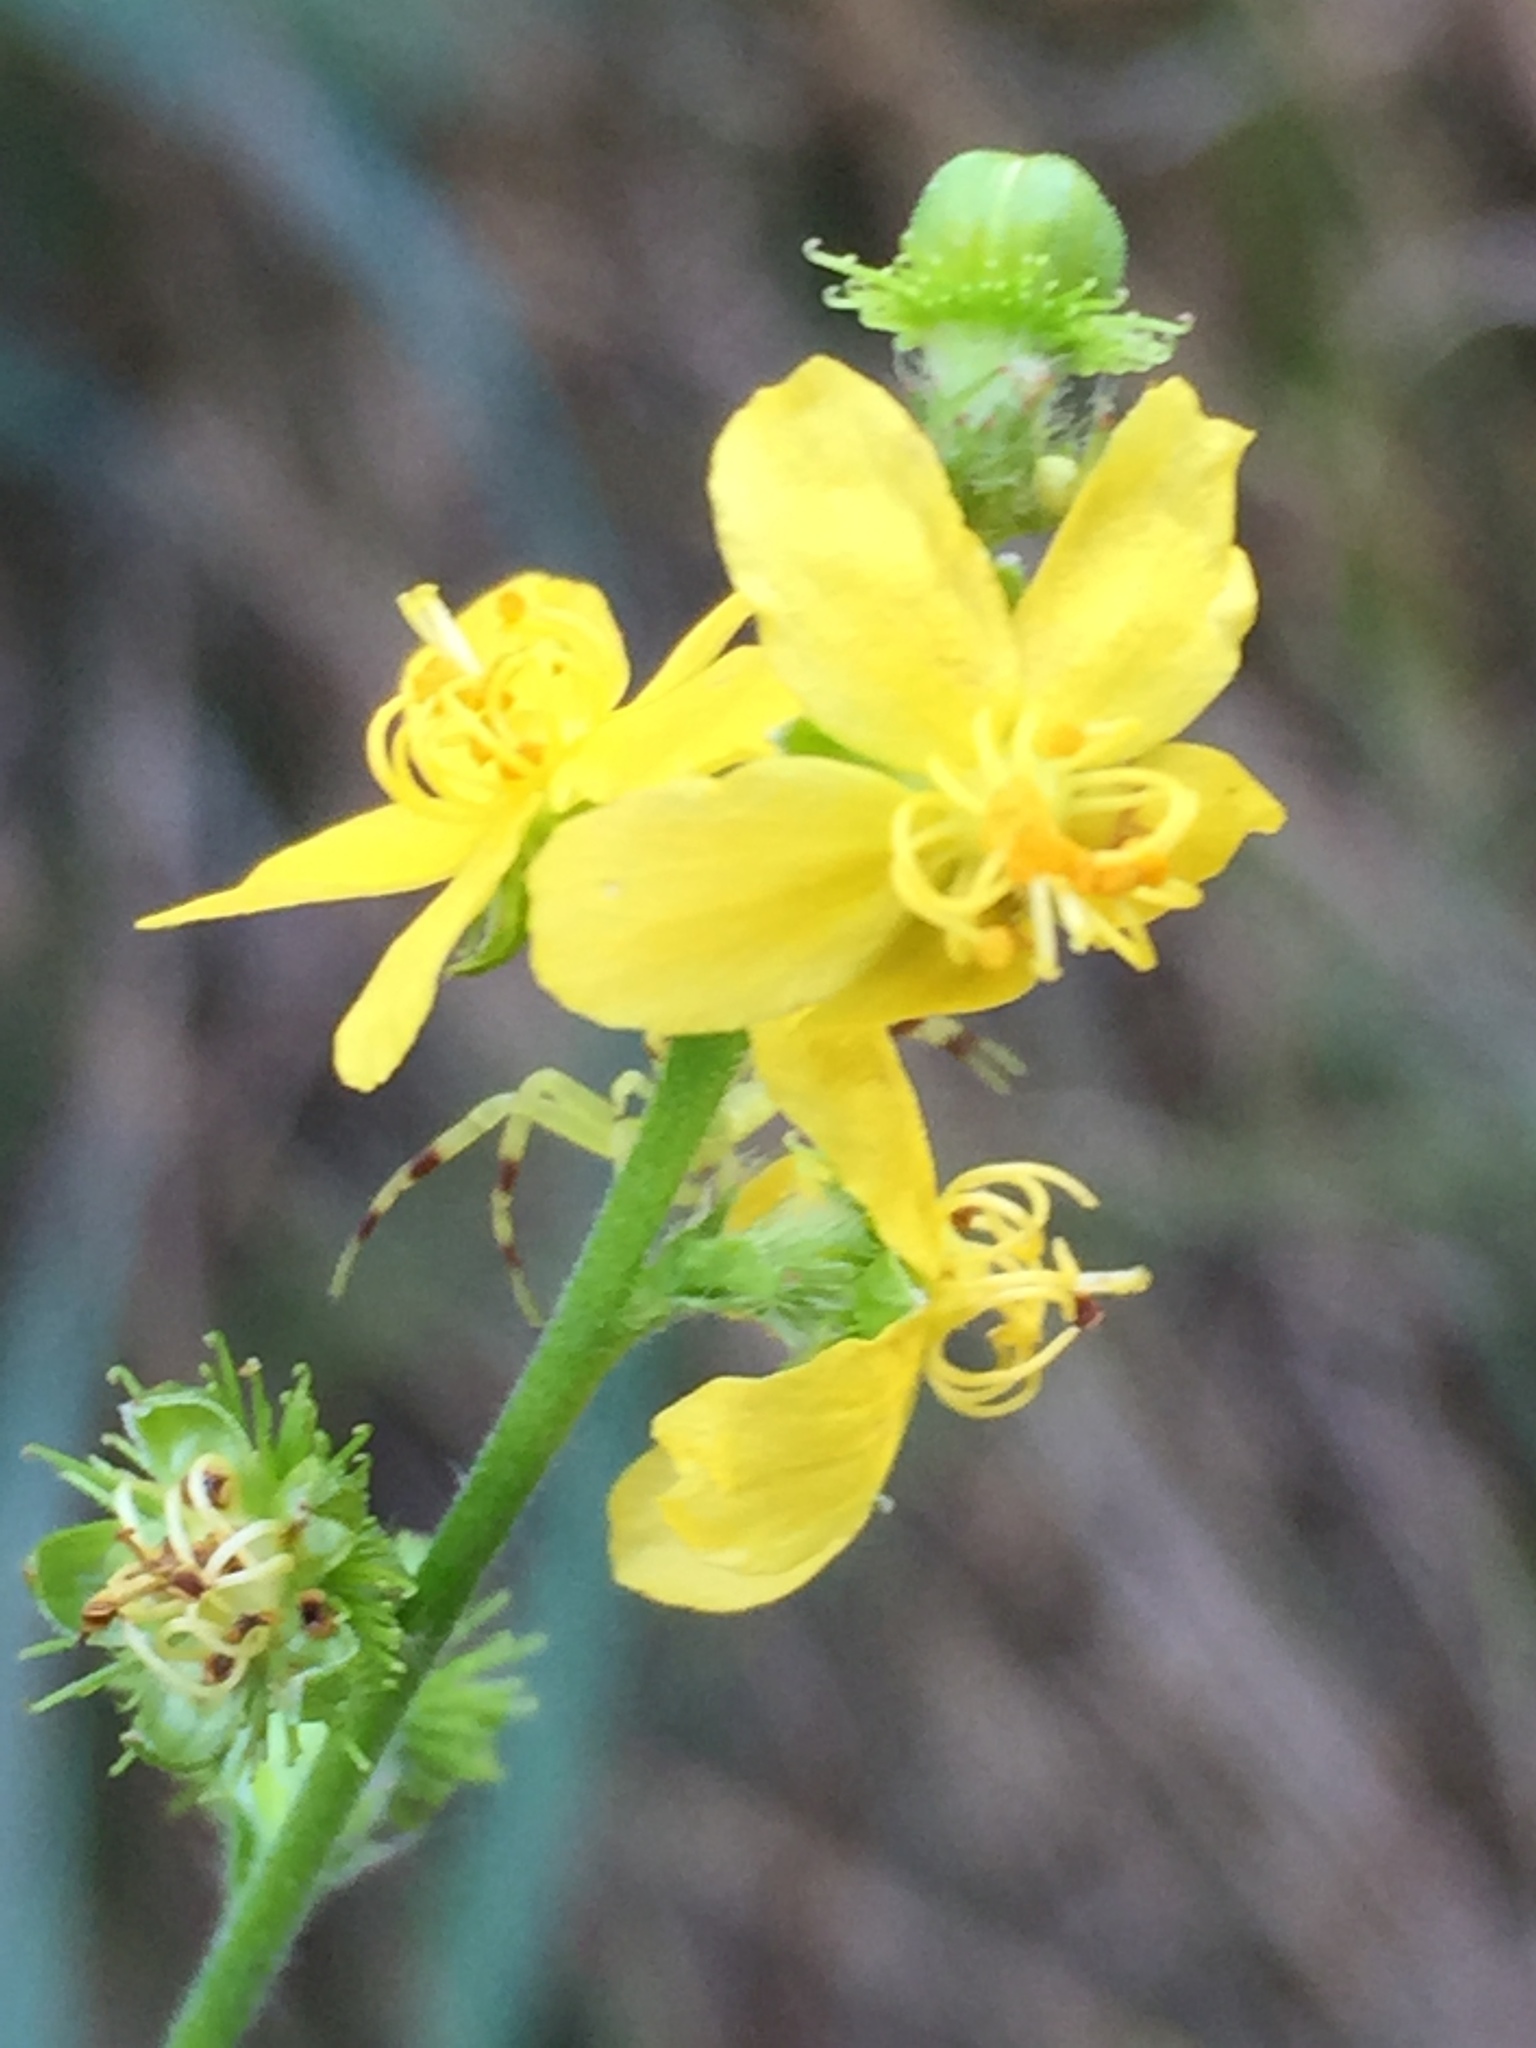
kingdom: Plantae
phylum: Tracheophyta
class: Magnoliopsida
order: Rosales
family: Rosaceae
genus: Agrimonia
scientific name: Agrimonia eupatoria
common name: Agrimony
